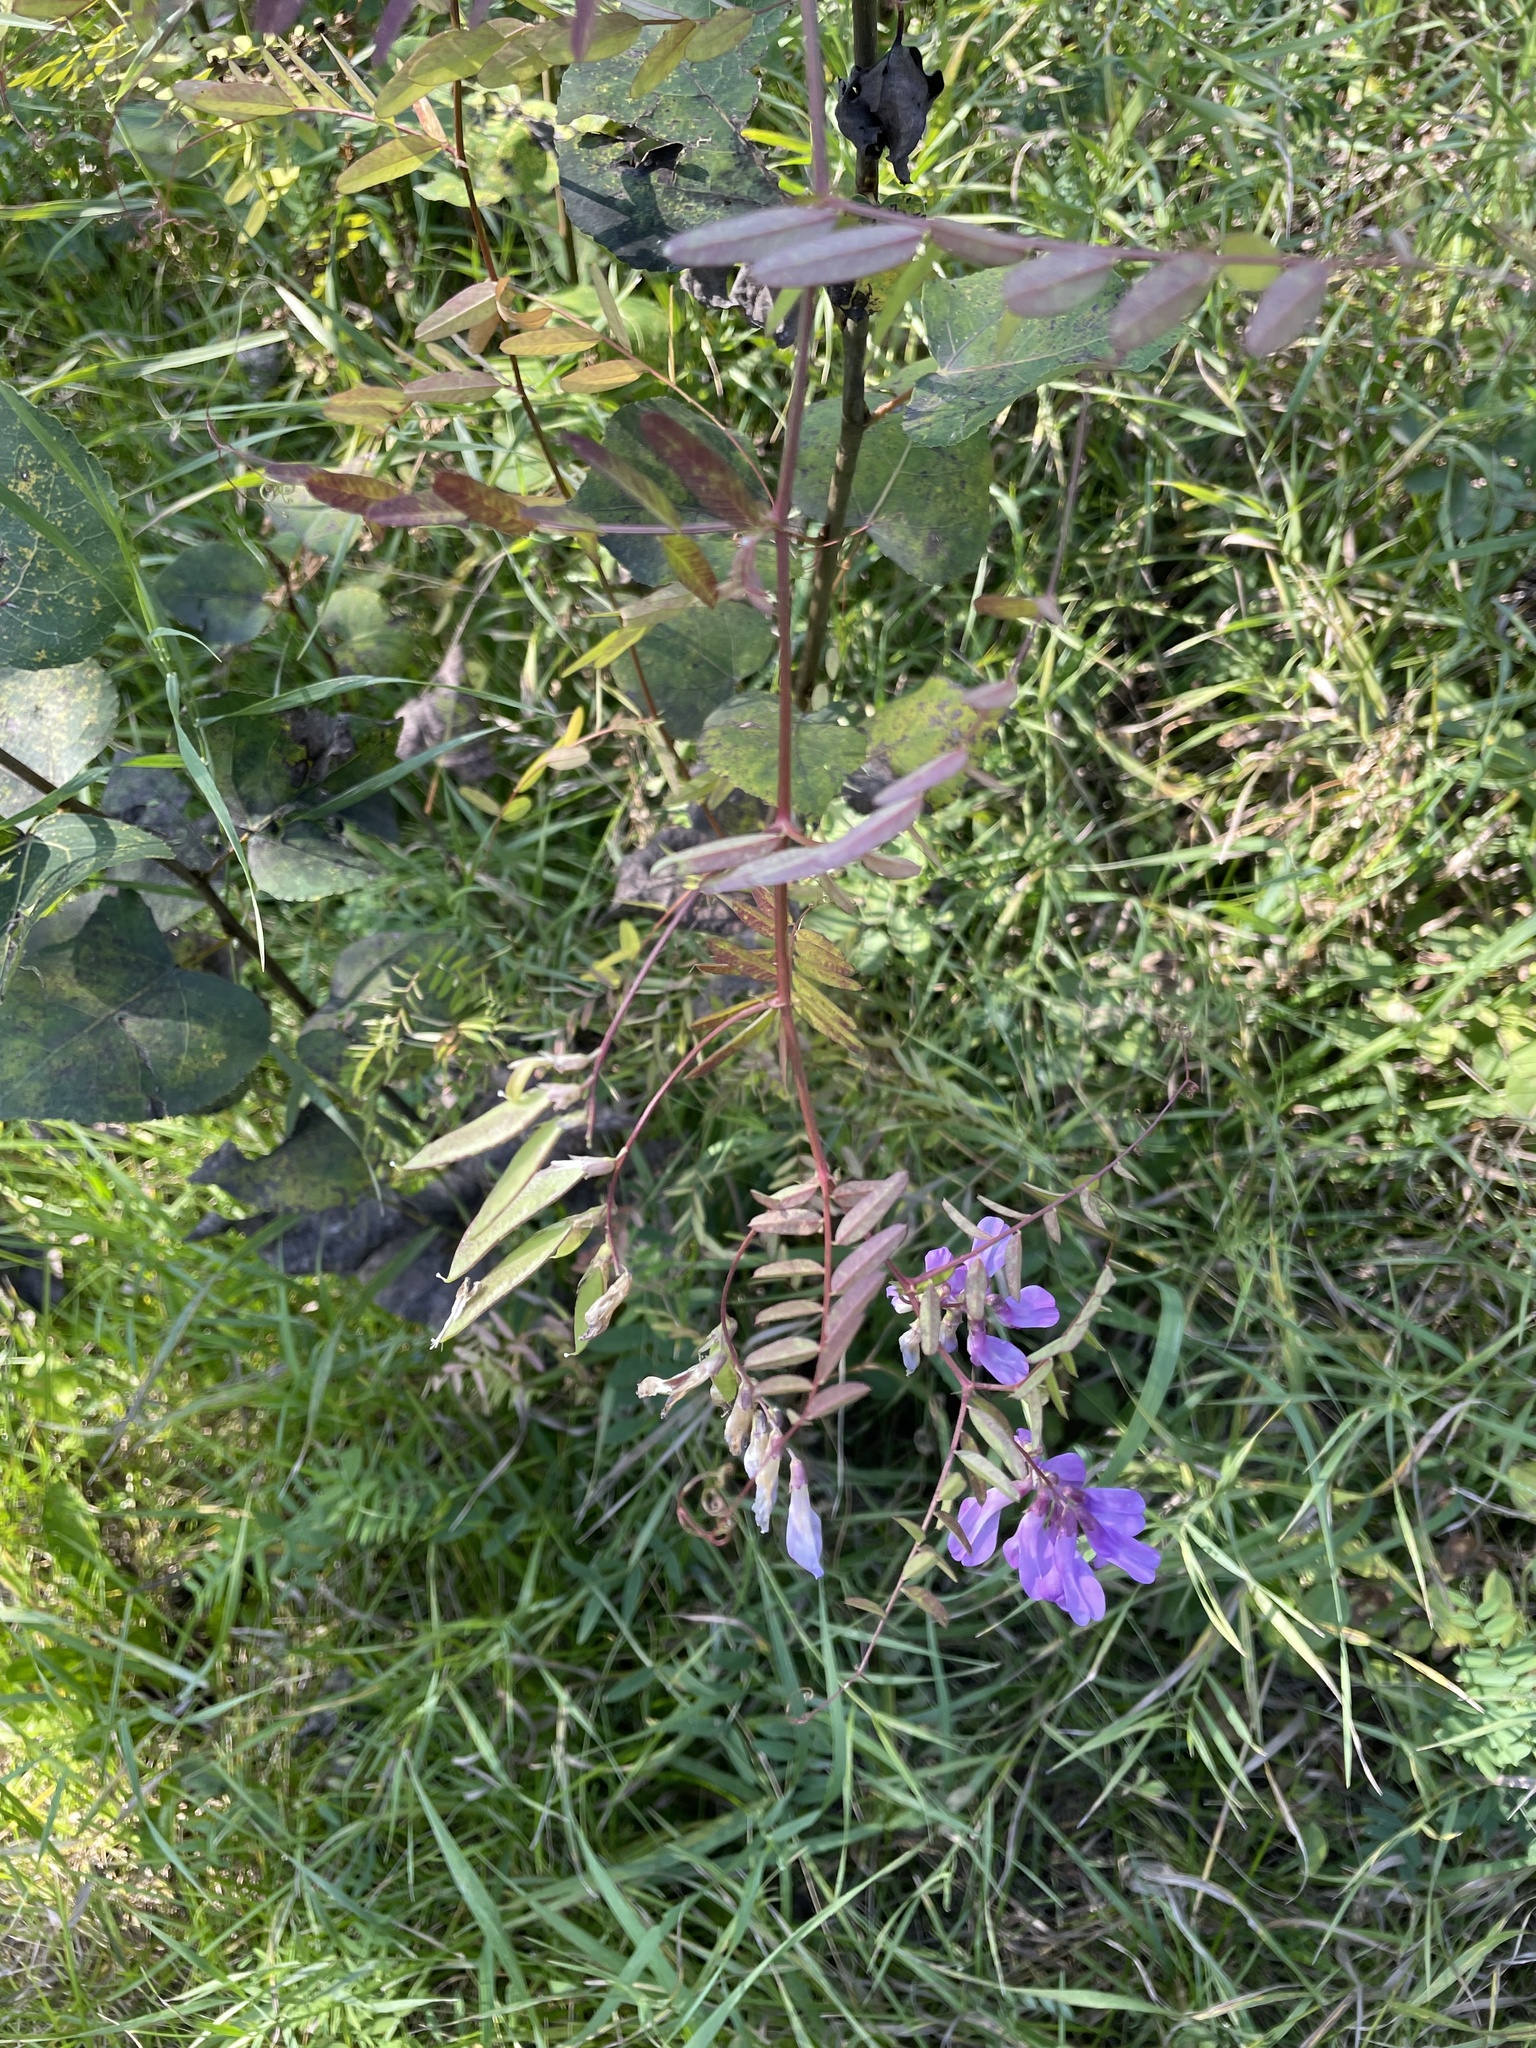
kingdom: Plantae
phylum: Tracheophyta
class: Magnoliopsida
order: Fabales
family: Fabaceae
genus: Vicia
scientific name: Vicia americana
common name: American vetch
